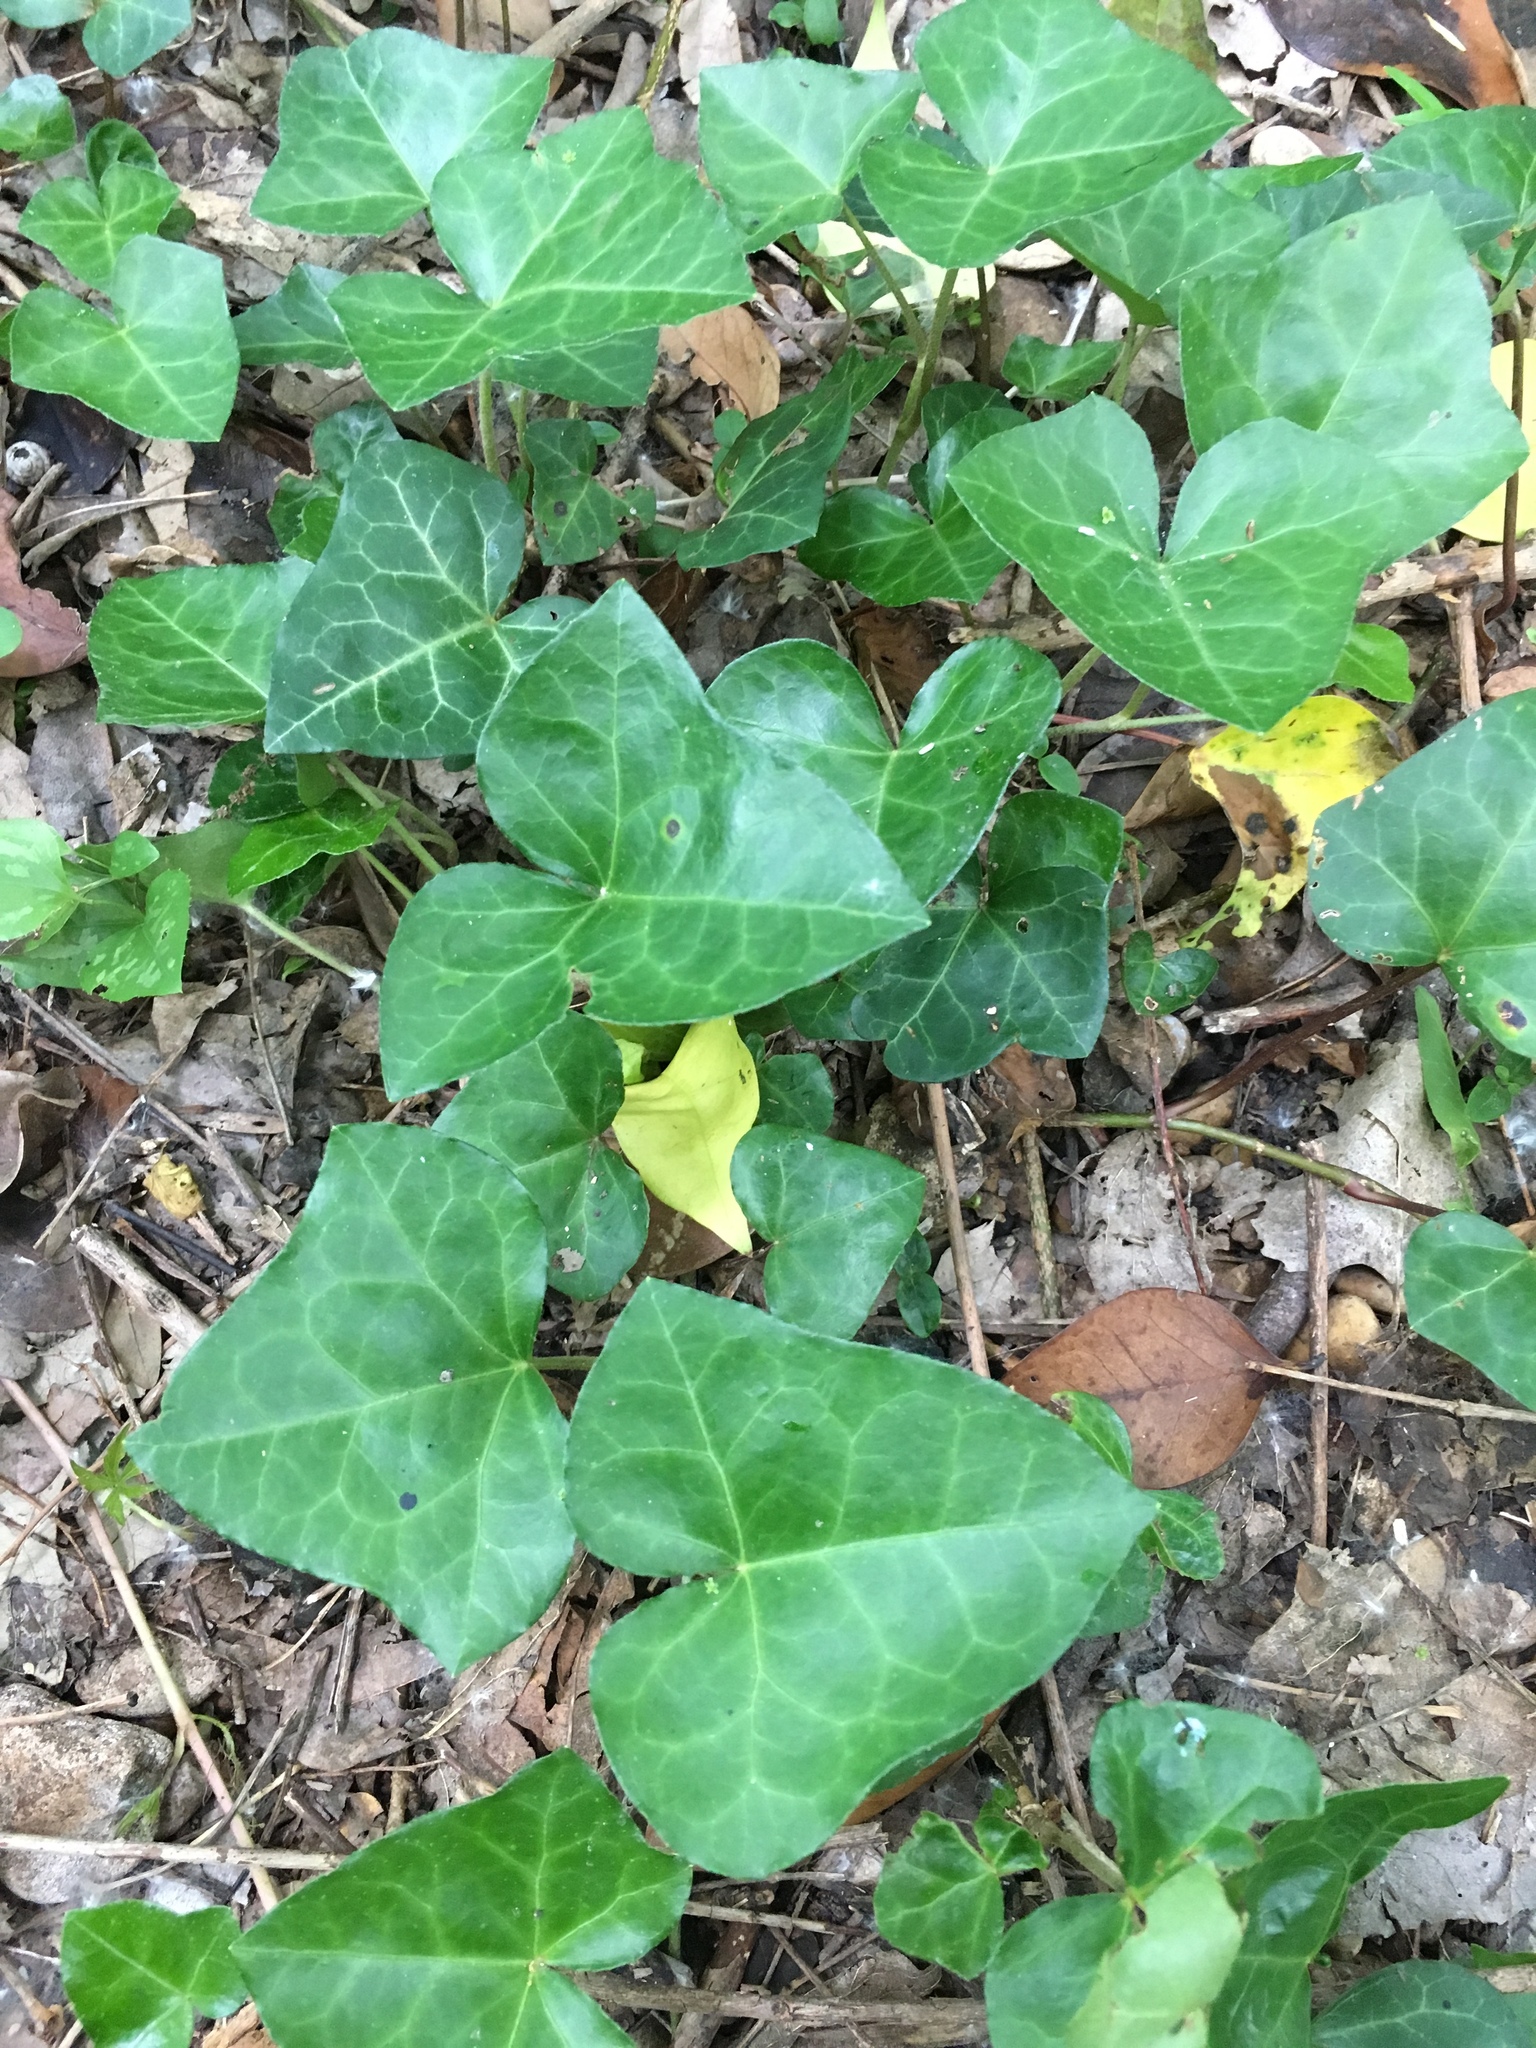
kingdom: Plantae
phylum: Tracheophyta
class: Magnoliopsida
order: Apiales
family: Araliaceae
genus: Hedera
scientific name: Hedera helix
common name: Ivy
